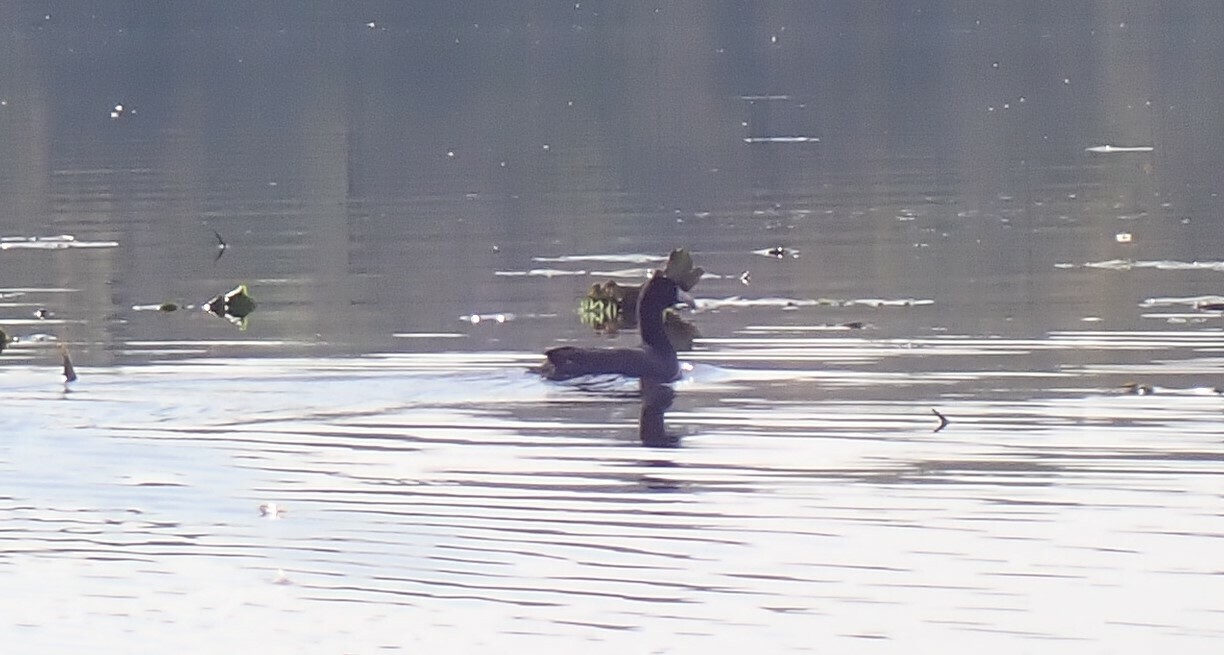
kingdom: Animalia
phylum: Chordata
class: Aves
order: Gruiformes
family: Rallidae
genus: Fulica
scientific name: Fulica americana
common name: American coot
